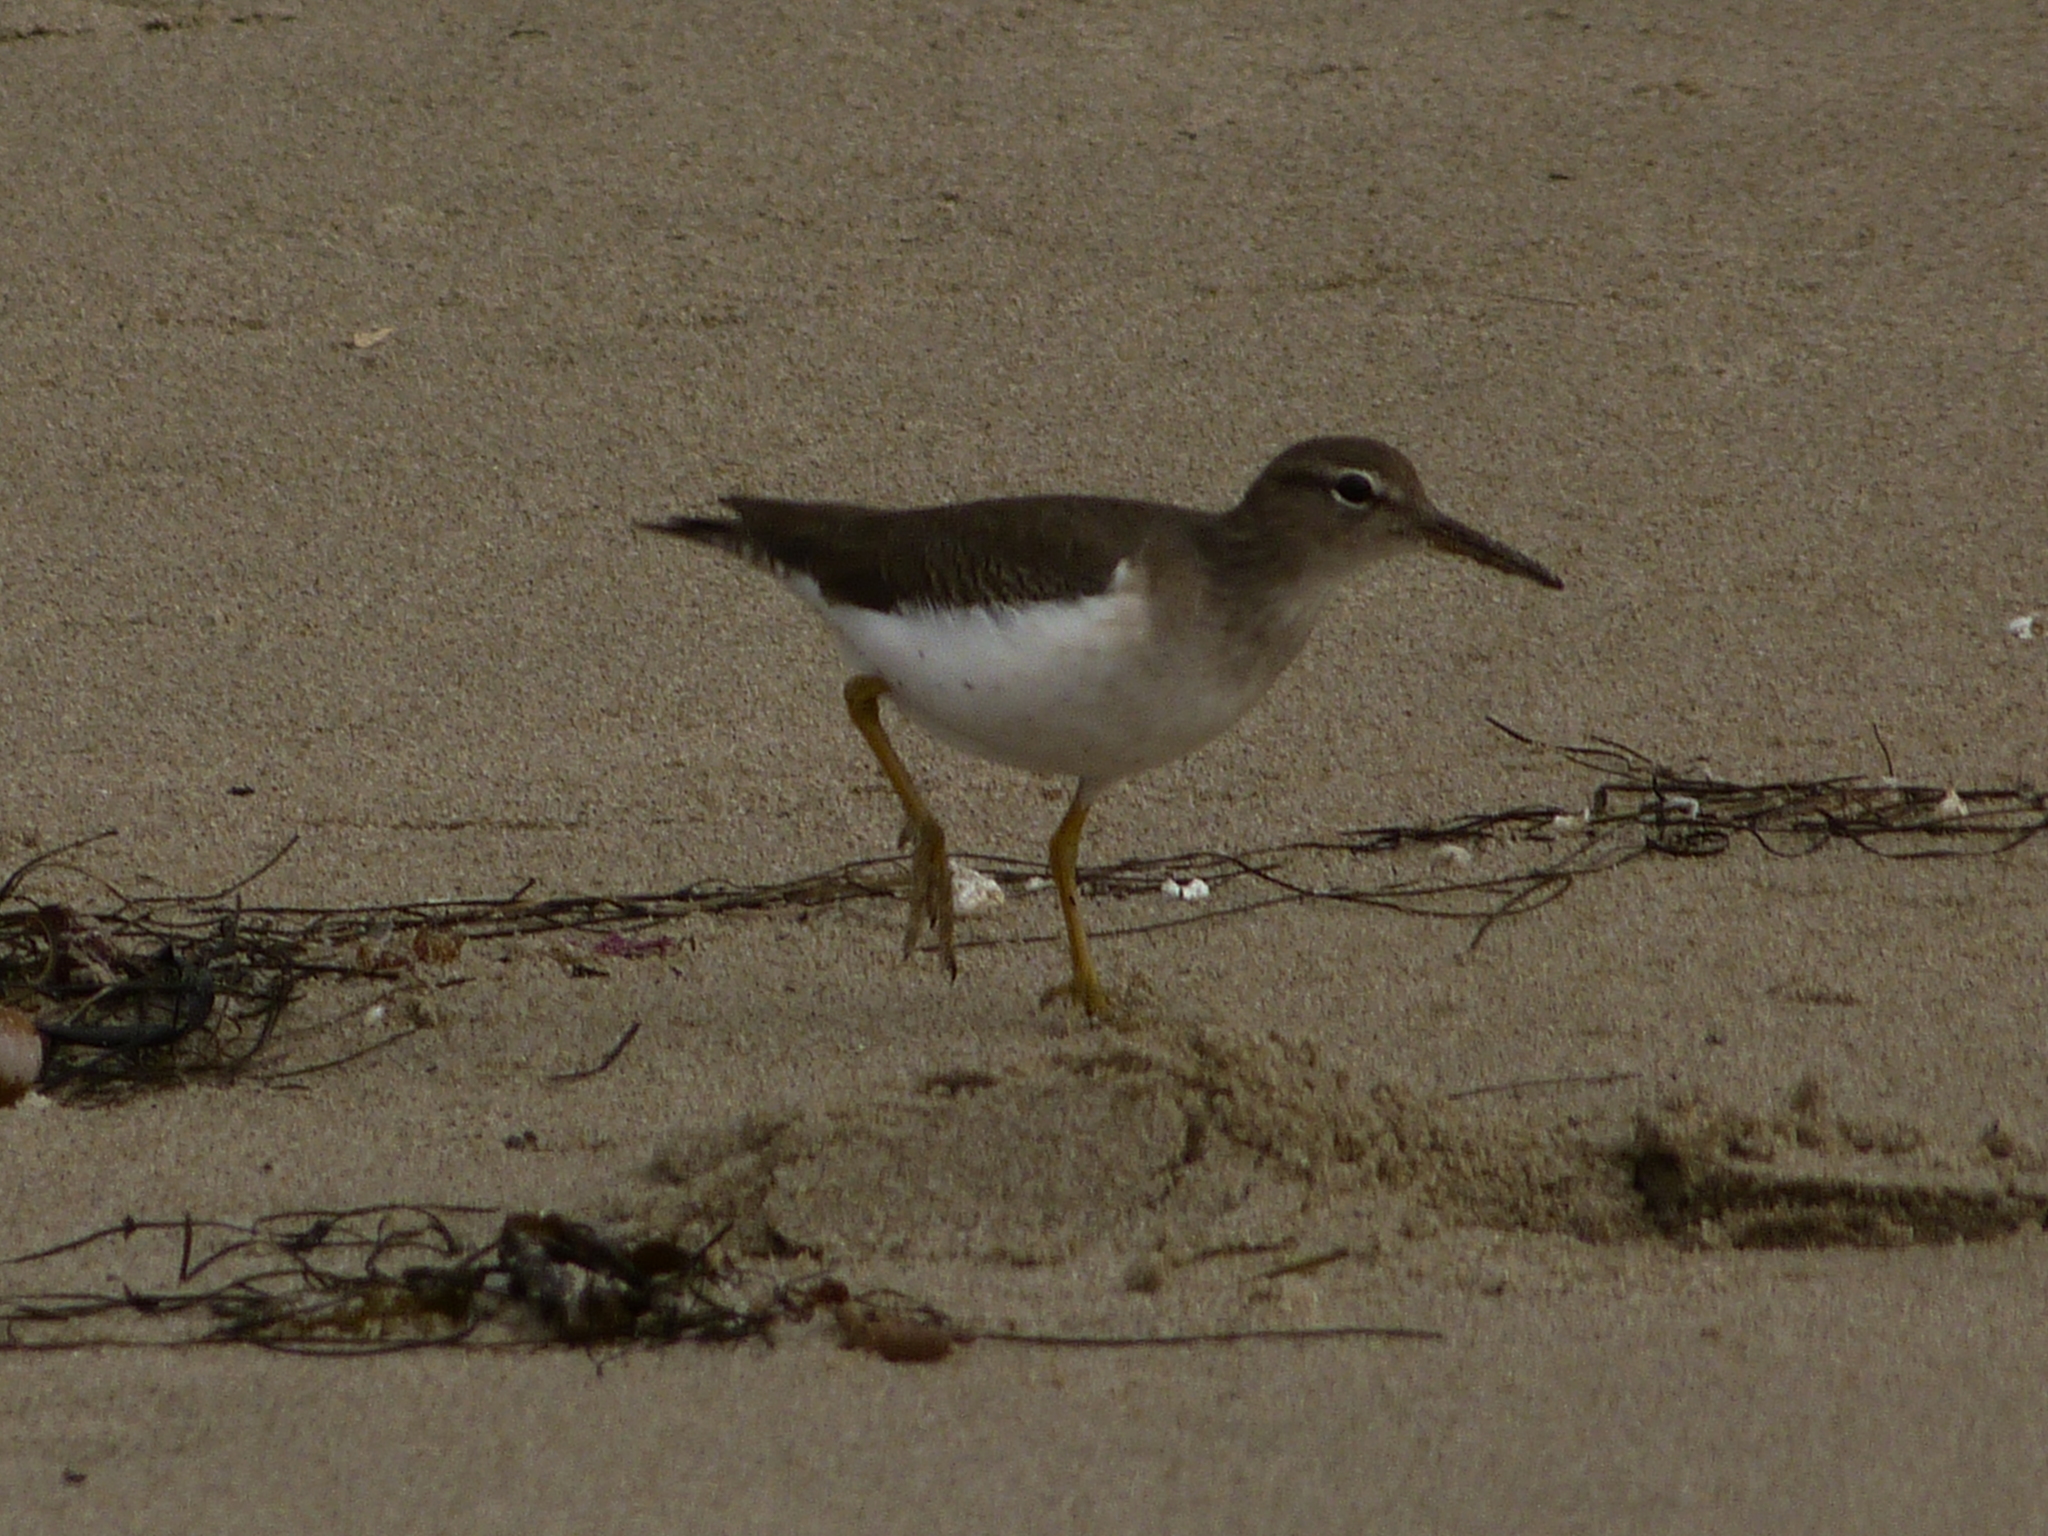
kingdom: Animalia
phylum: Chordata
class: Aves
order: Charadriiformes
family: Scolopacidae
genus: Actitis
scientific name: Actitis macularius
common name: Spotted sandpiper
